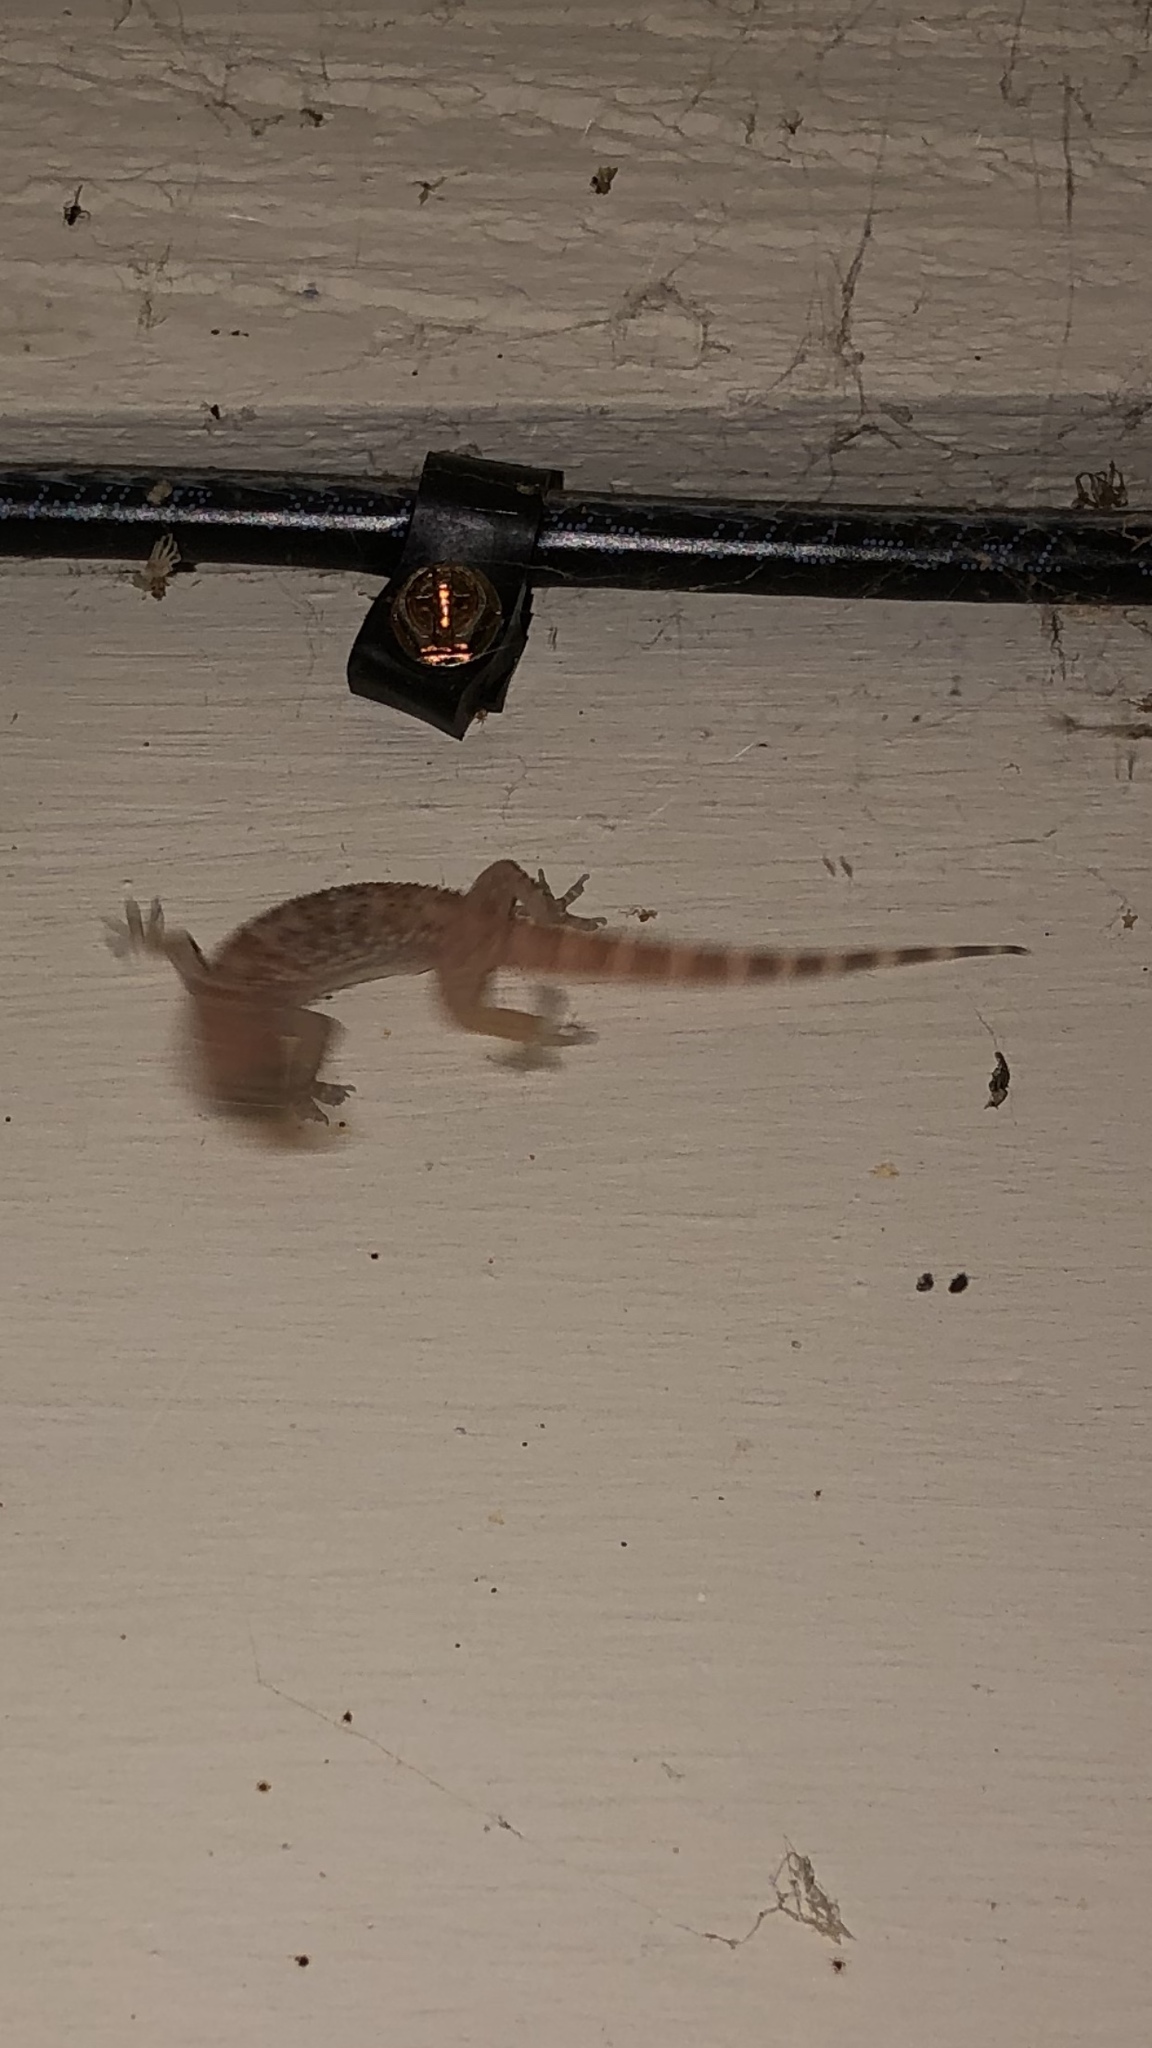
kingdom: Animalia
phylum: Chordata
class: Squamata
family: Gekkonidae
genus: Hemidactylus
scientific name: Hemidactylus turcicus
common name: Turkish gecko
